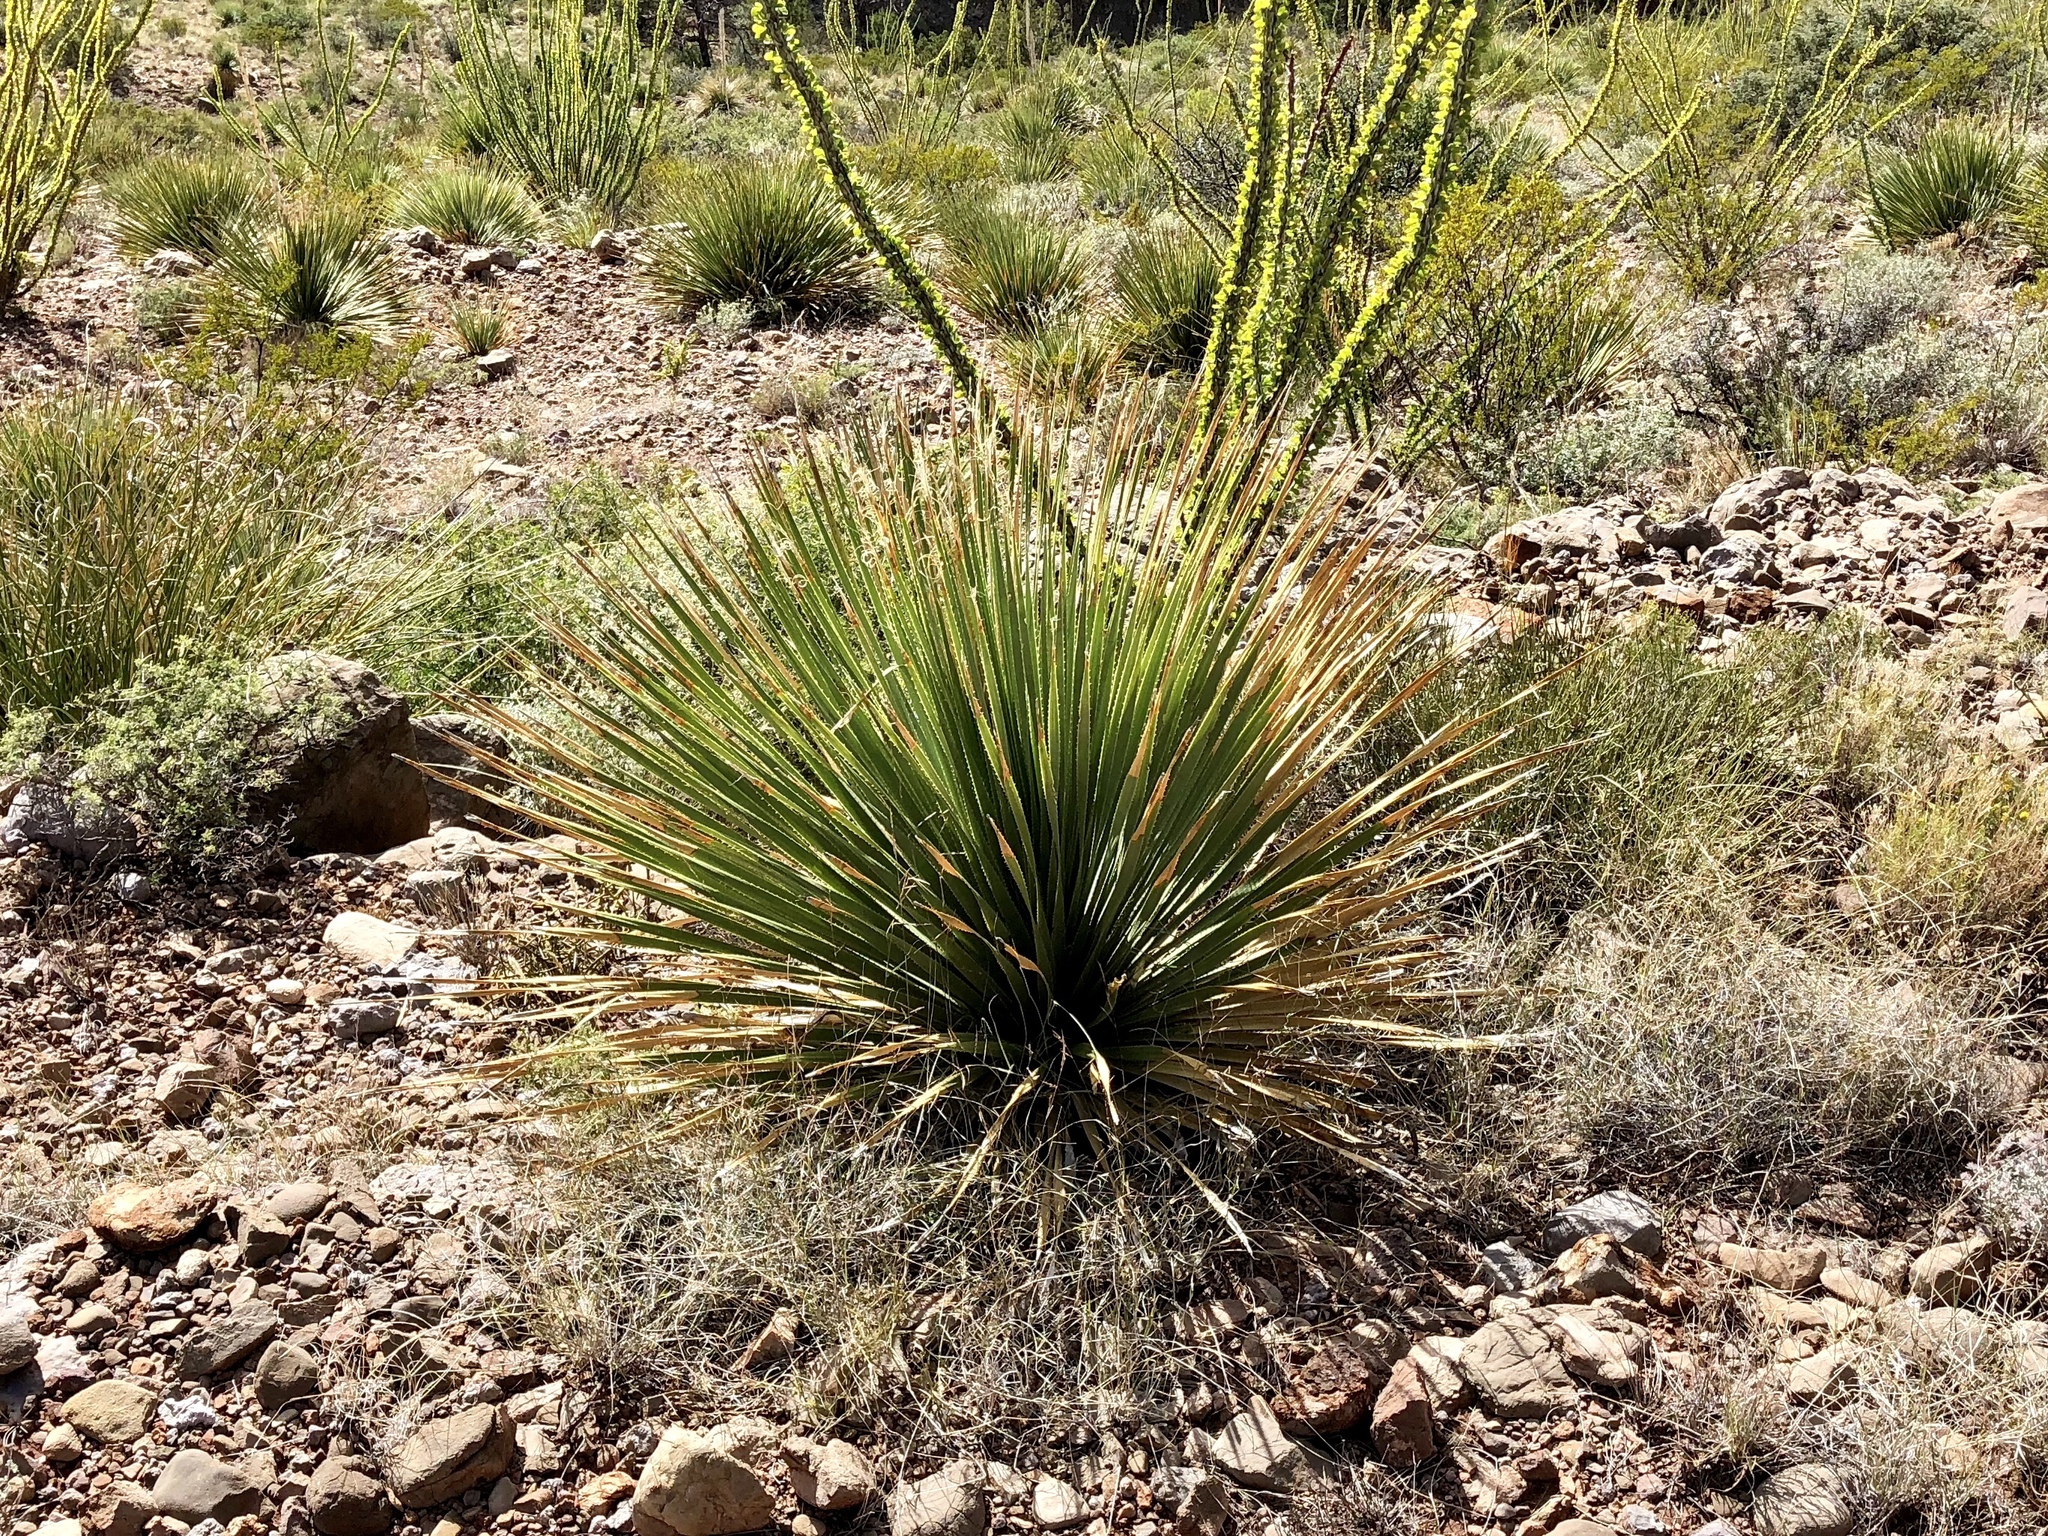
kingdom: Plantae
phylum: Tracheophyta
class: Liliopsida
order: Asparagales
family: Asparagaceae
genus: Dasylirion
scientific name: Dasylirion wheeleri
